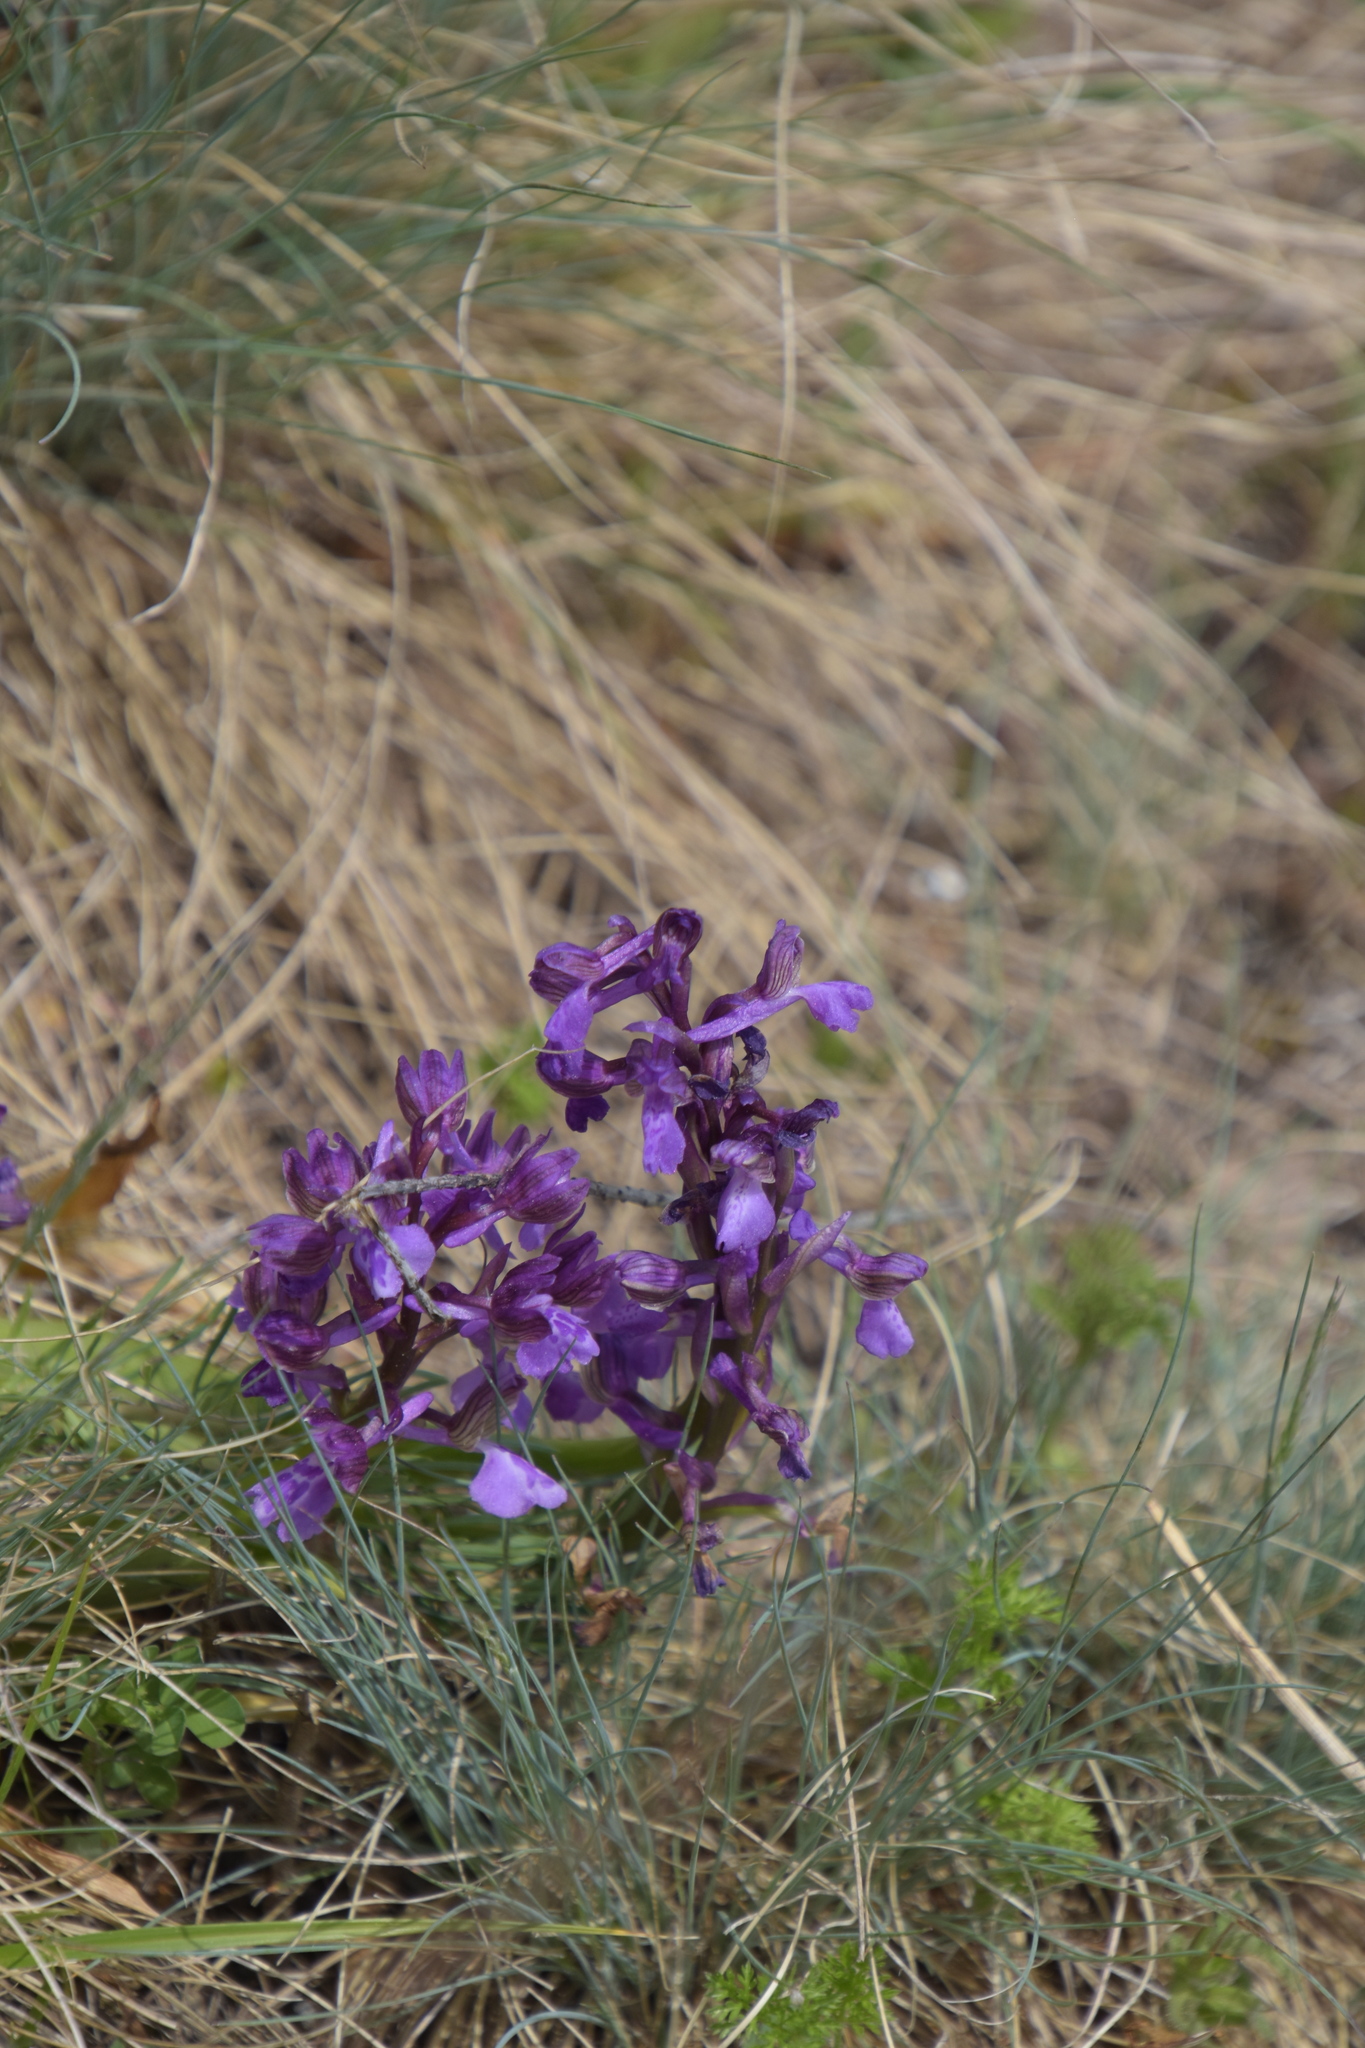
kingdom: Plantae
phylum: Tracheophyta
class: Liliopsida
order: Asparagales
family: Orchidaceae
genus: Anacamptis
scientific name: Anacamptis morio
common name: Green-winged orchid
